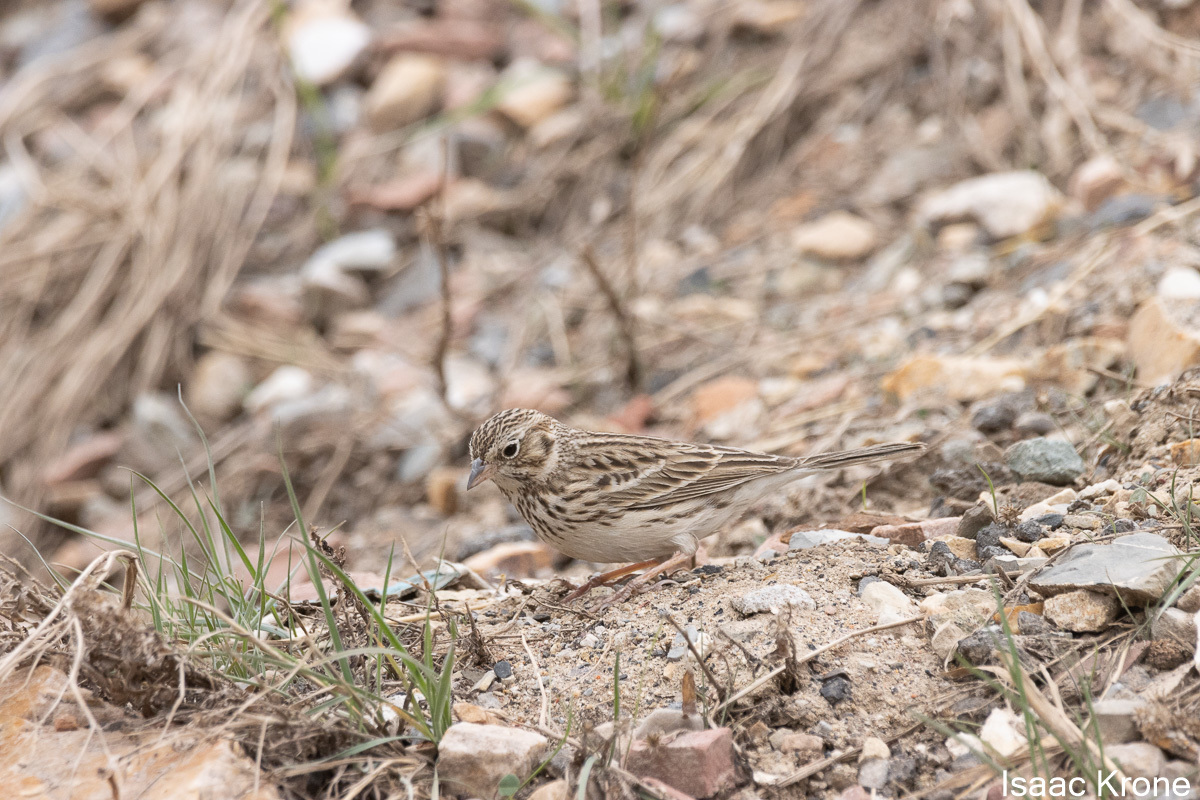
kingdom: Animalia
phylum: Chordata
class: Aves
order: Passeriformes
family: Passerellidae
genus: Pooecetes
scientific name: Pooecetes gramineus
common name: Vesper sparrow
